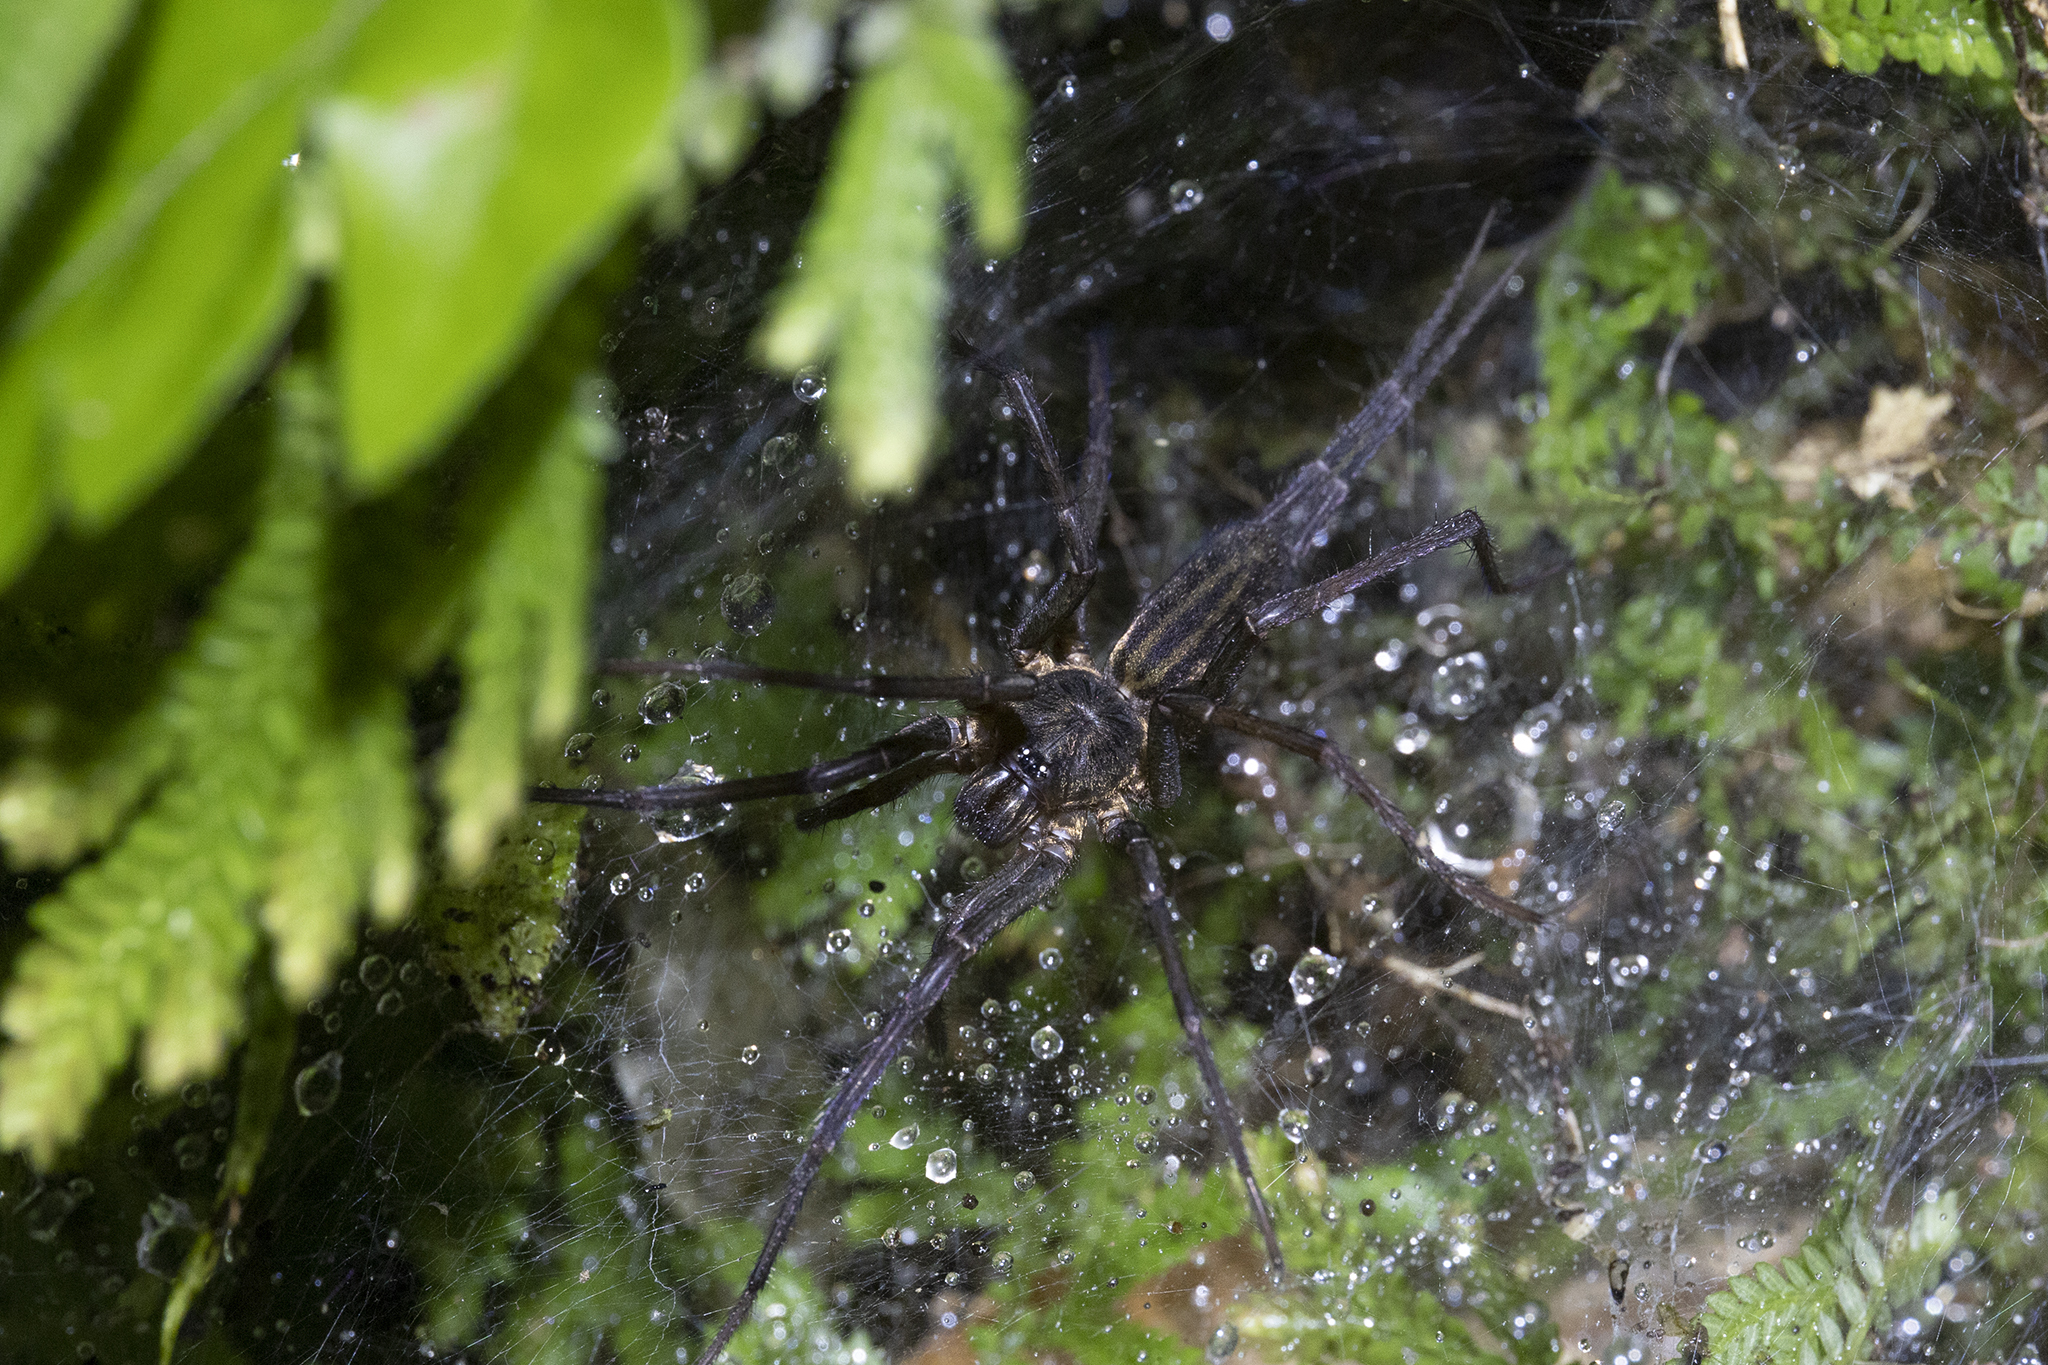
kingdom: Animalia
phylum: Arthropoda
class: Arachnida
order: Araneae
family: Dipluridae
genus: Linothele
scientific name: Linothele sericata
